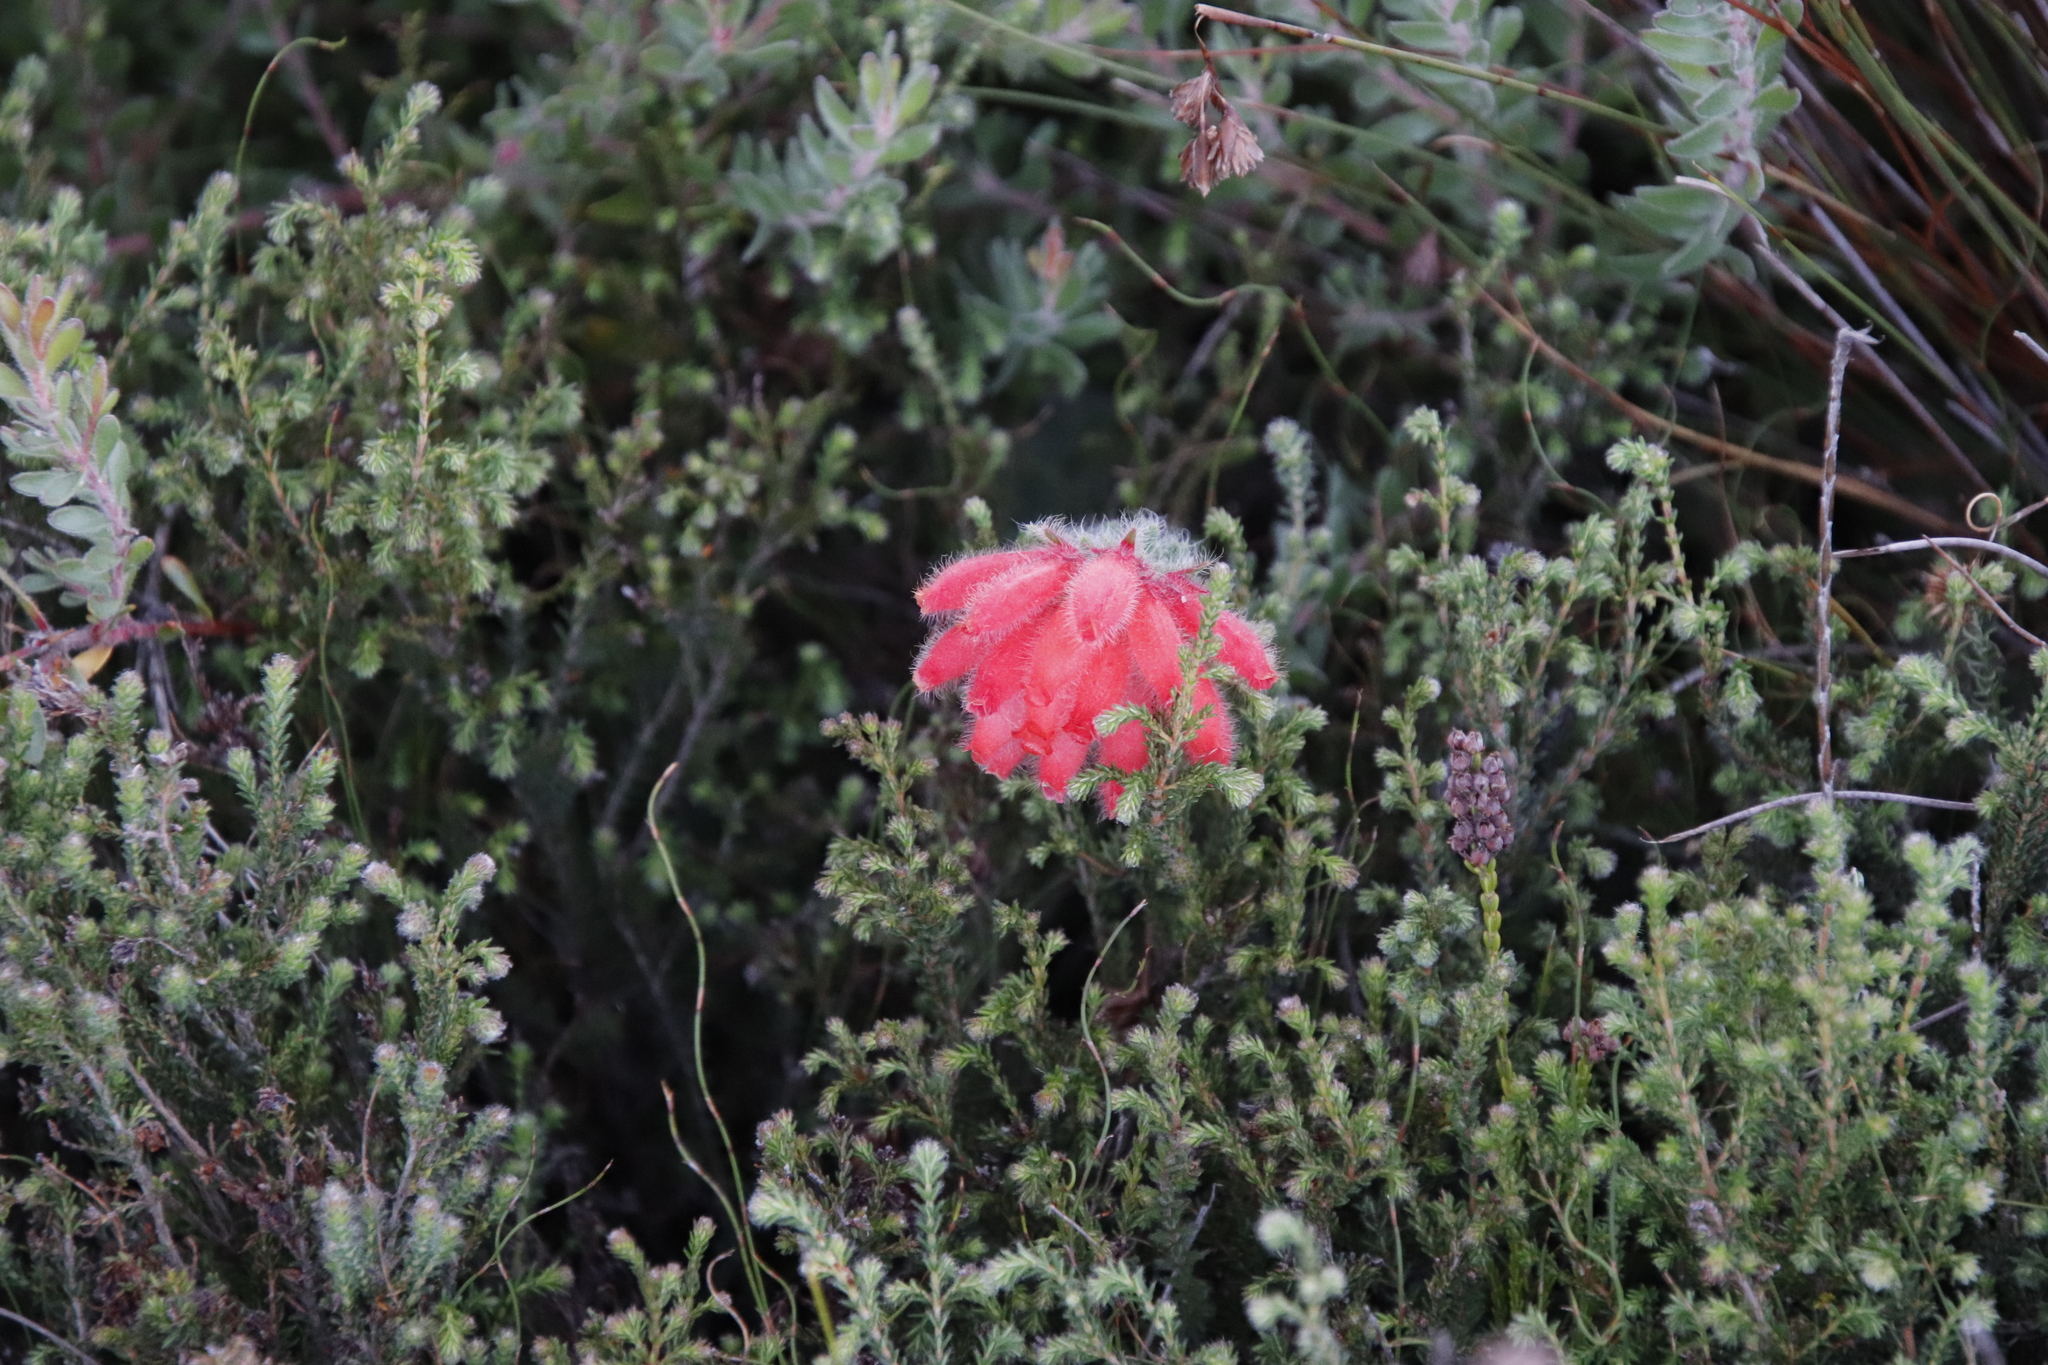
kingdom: Plantae
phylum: Tracheophyta
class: Magnoliopsida
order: Ericales
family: Ericaceae
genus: Erica
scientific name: Erica cerinthoides
